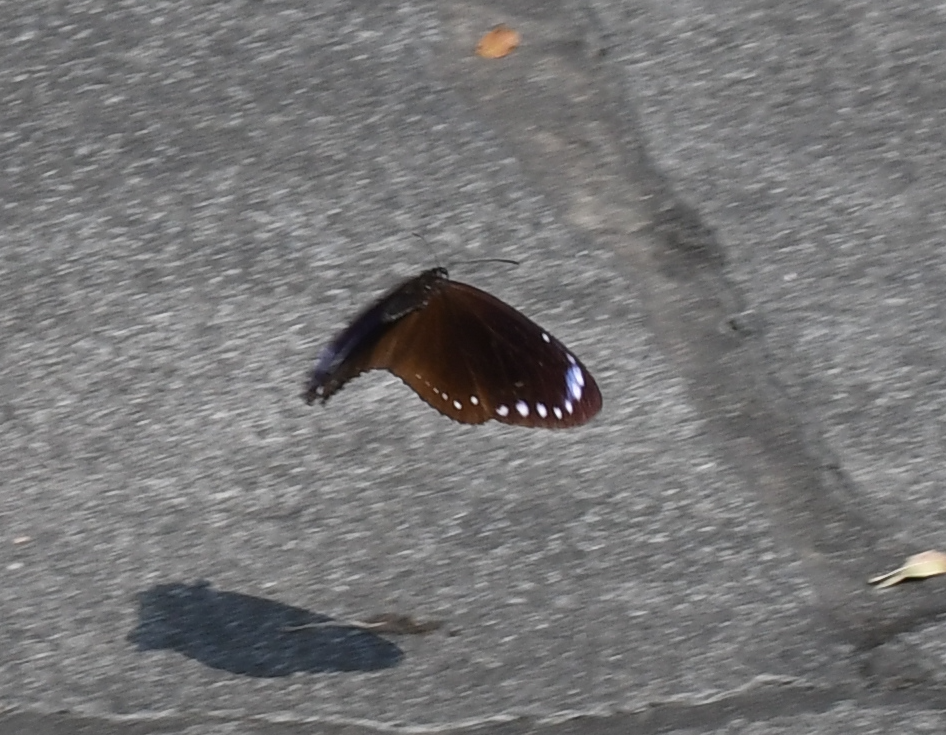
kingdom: Animalia
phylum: Arthropoda
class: Insecta
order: Lepidoptera
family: Nymphalidae
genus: Euploea
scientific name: Euploea tulliolus
